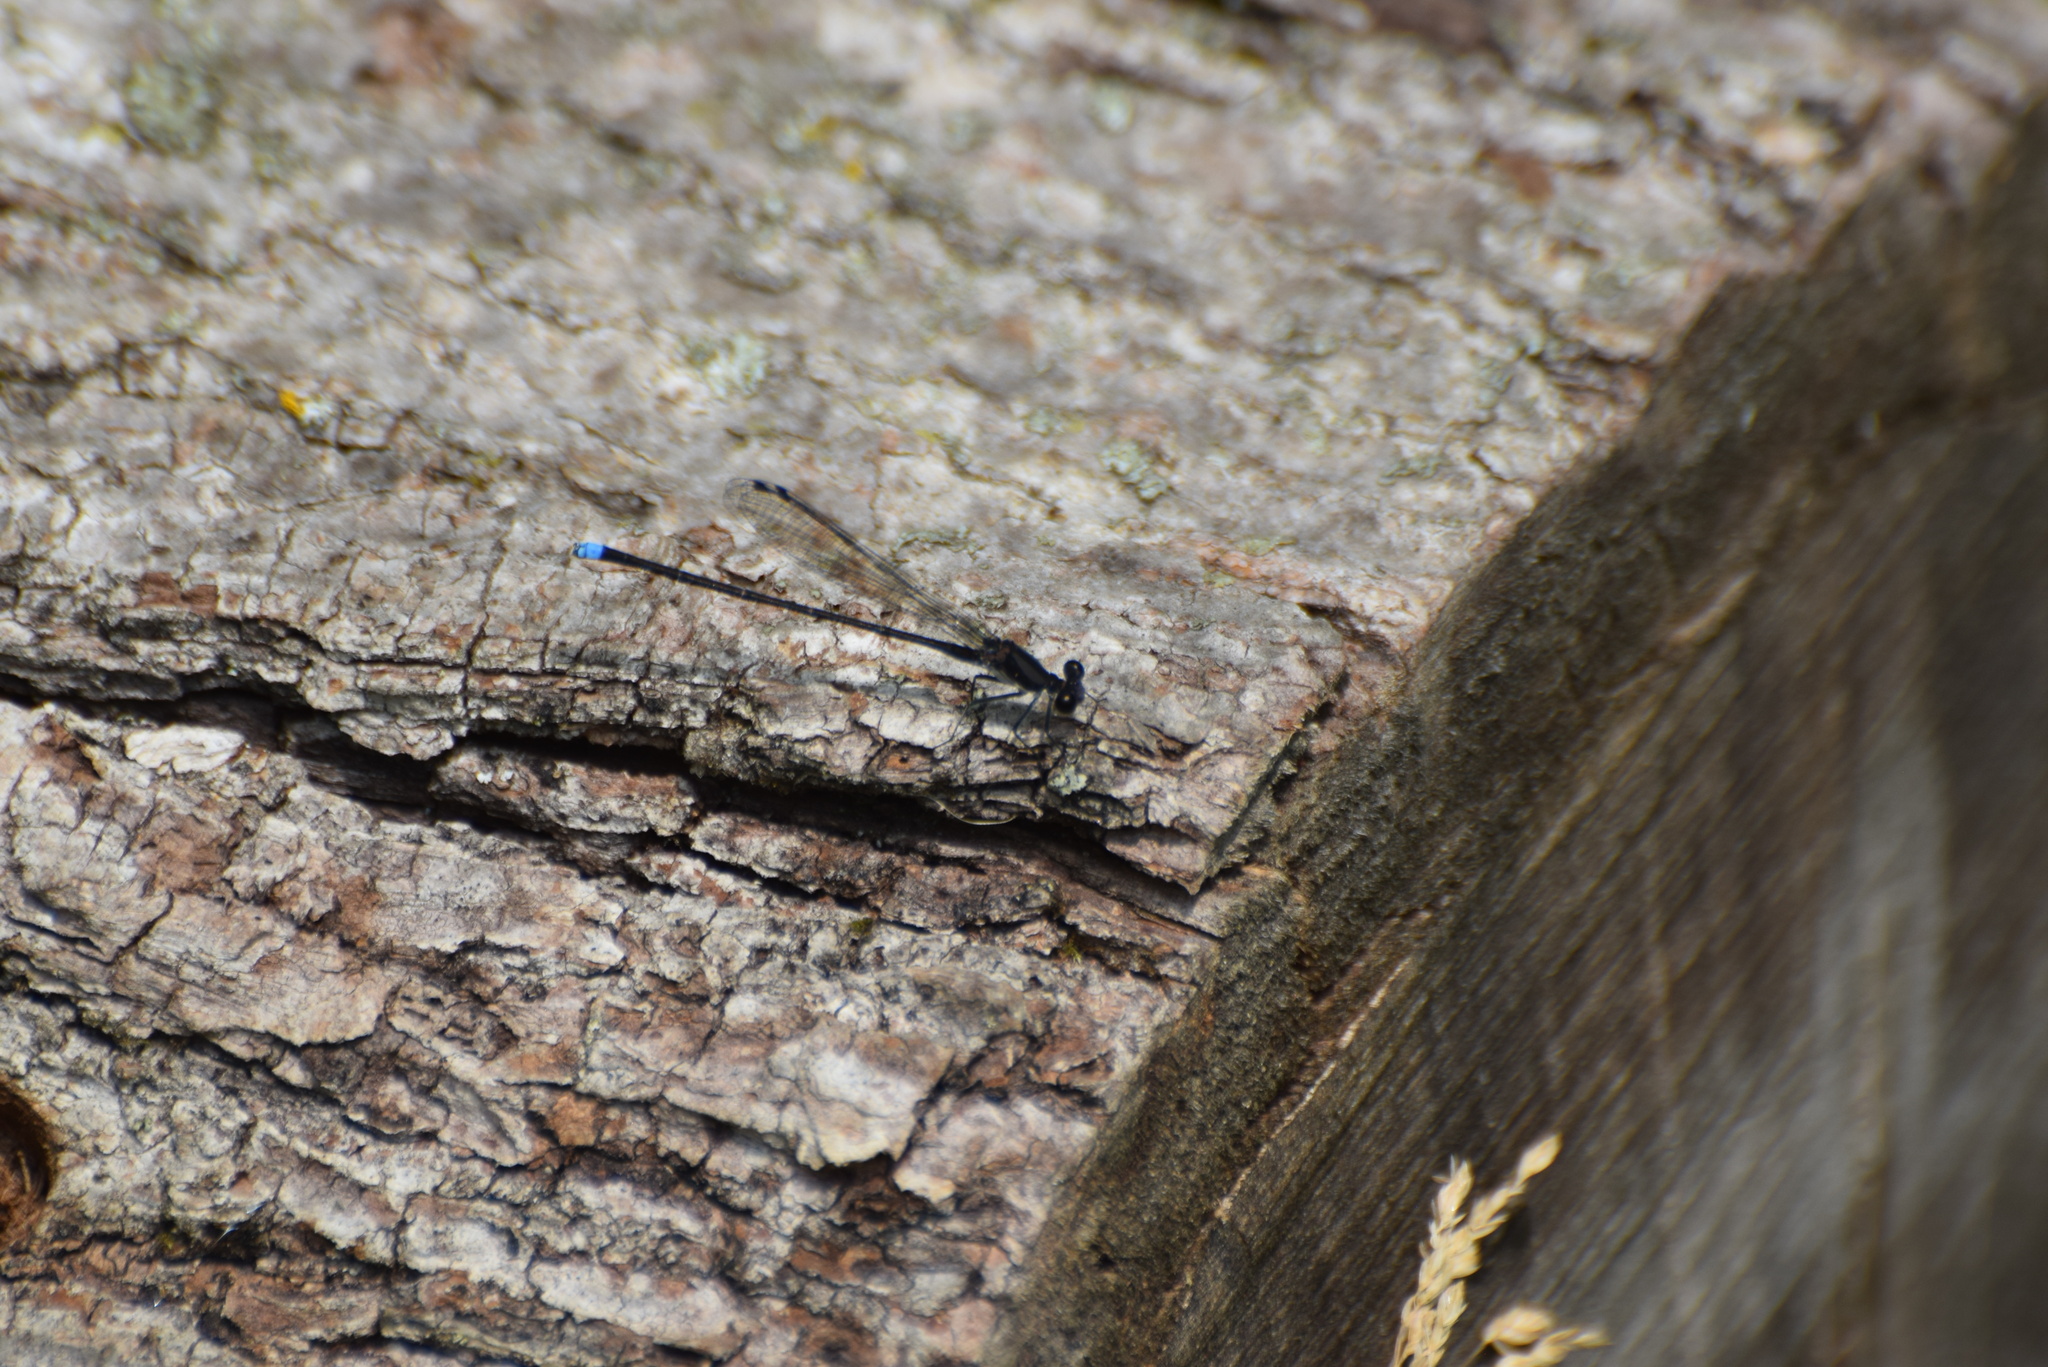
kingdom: Animalia
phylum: Arthropoda
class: Insecta
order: Odonata
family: Coenagrionidae
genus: Argia
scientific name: Argia tibialis
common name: Blue-tipped dancer
